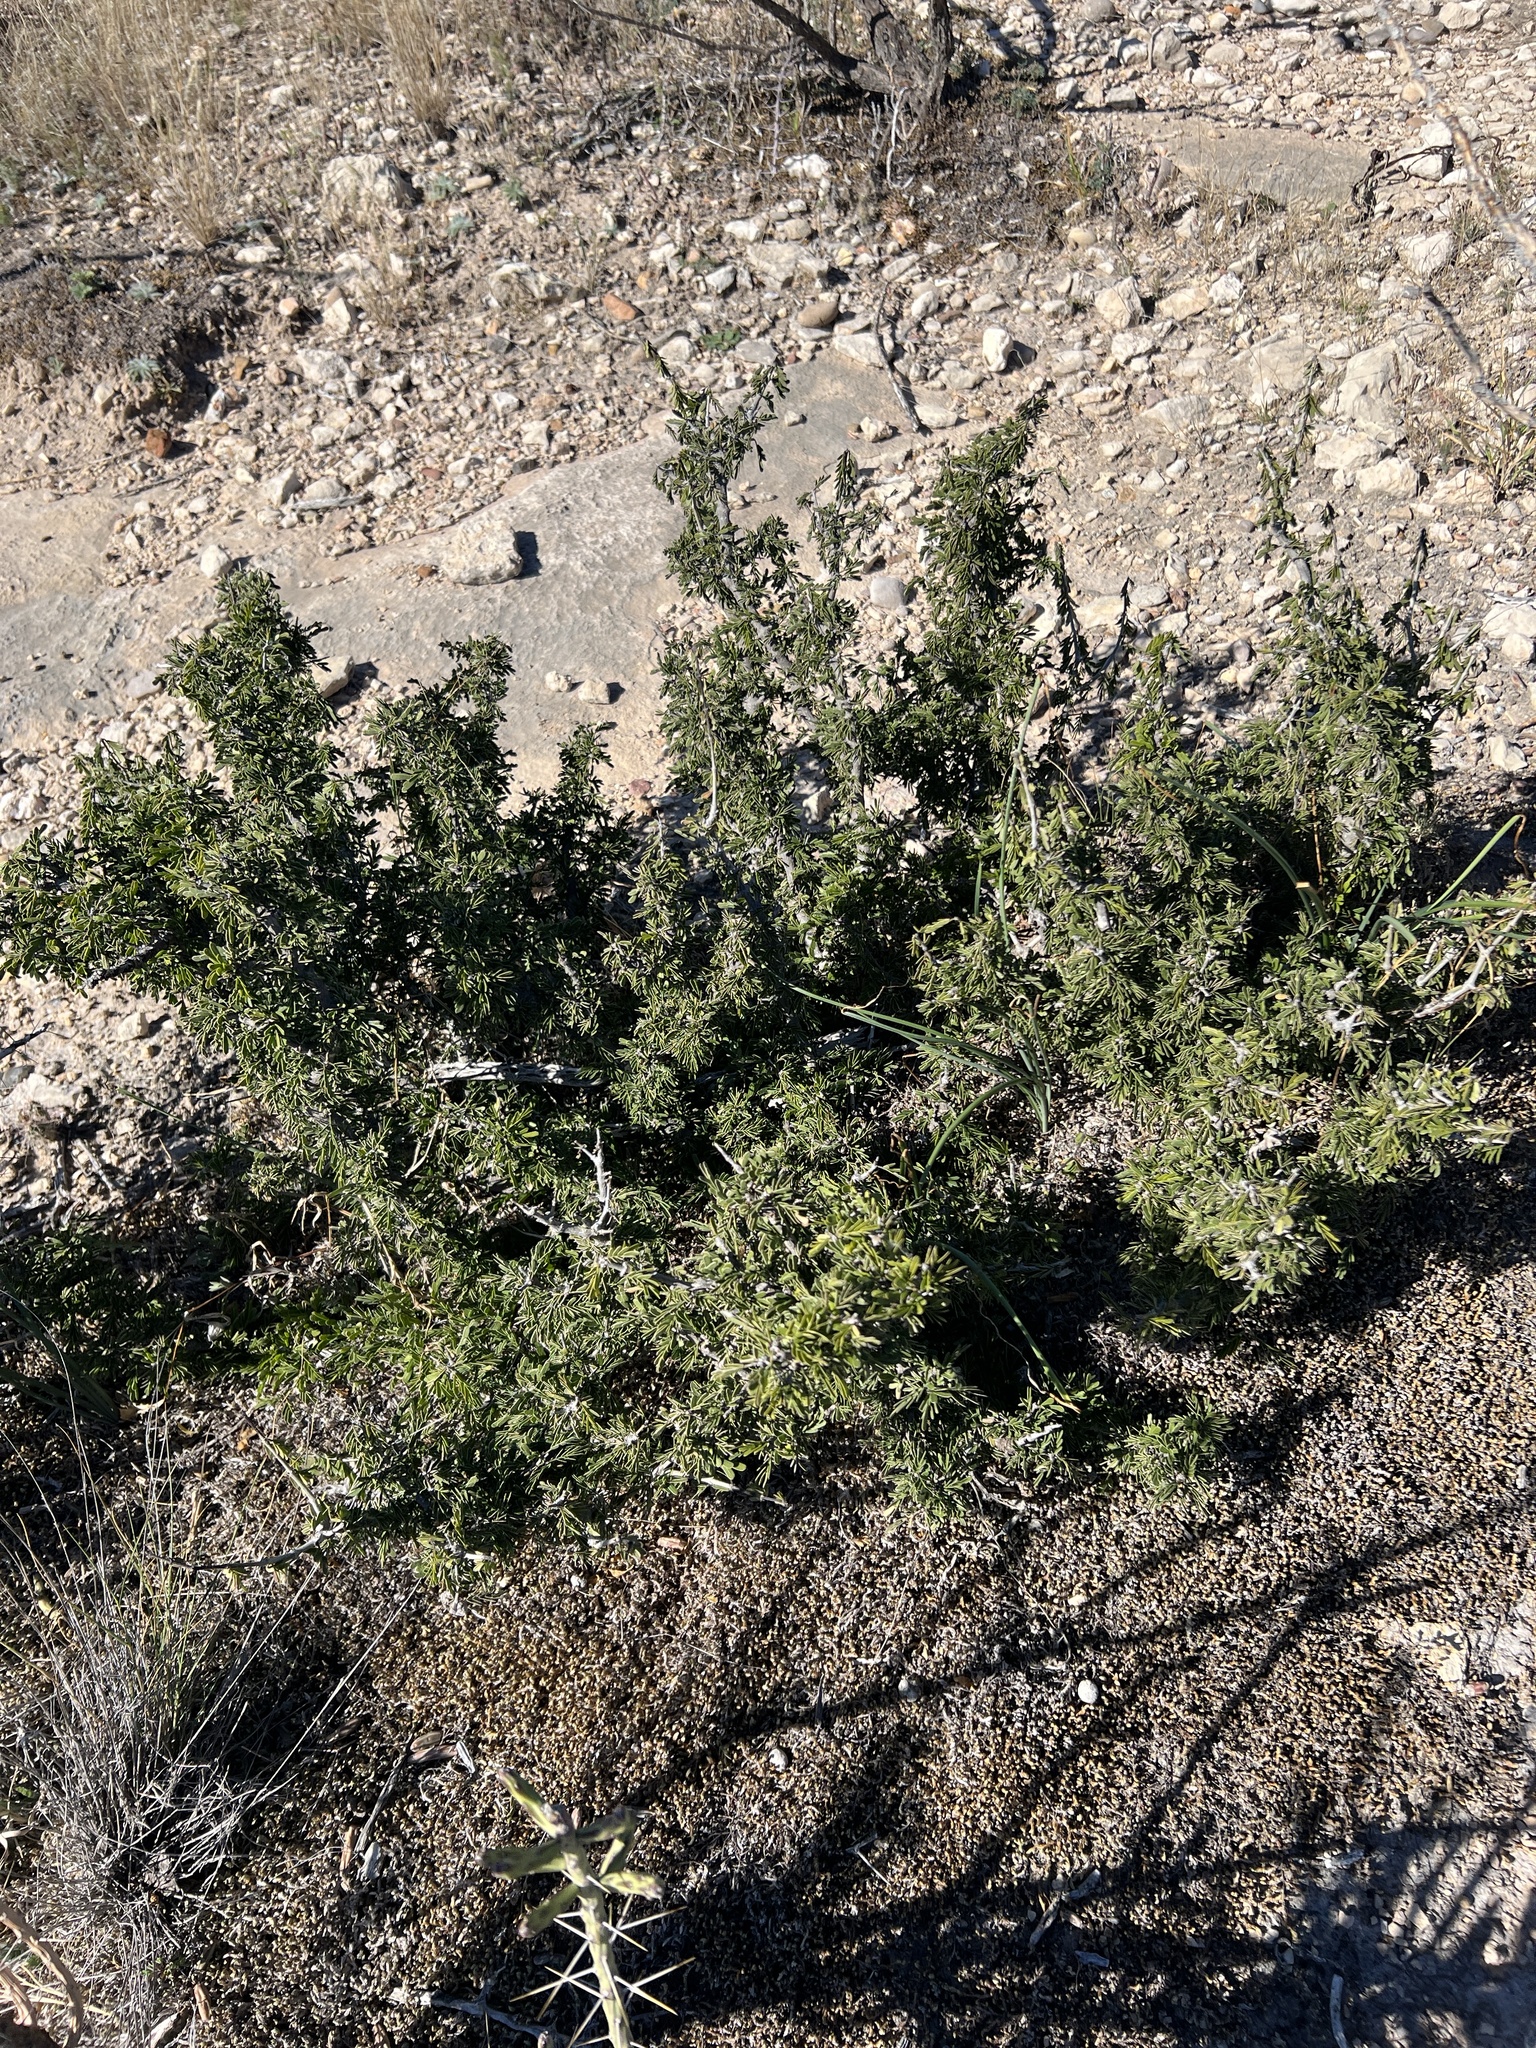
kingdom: Plantae
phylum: Tracheophyta
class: Magnoliopsida
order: Zygophyllales
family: Zygophyllaceae
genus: Porlieria
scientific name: Porlieria angustifolia
